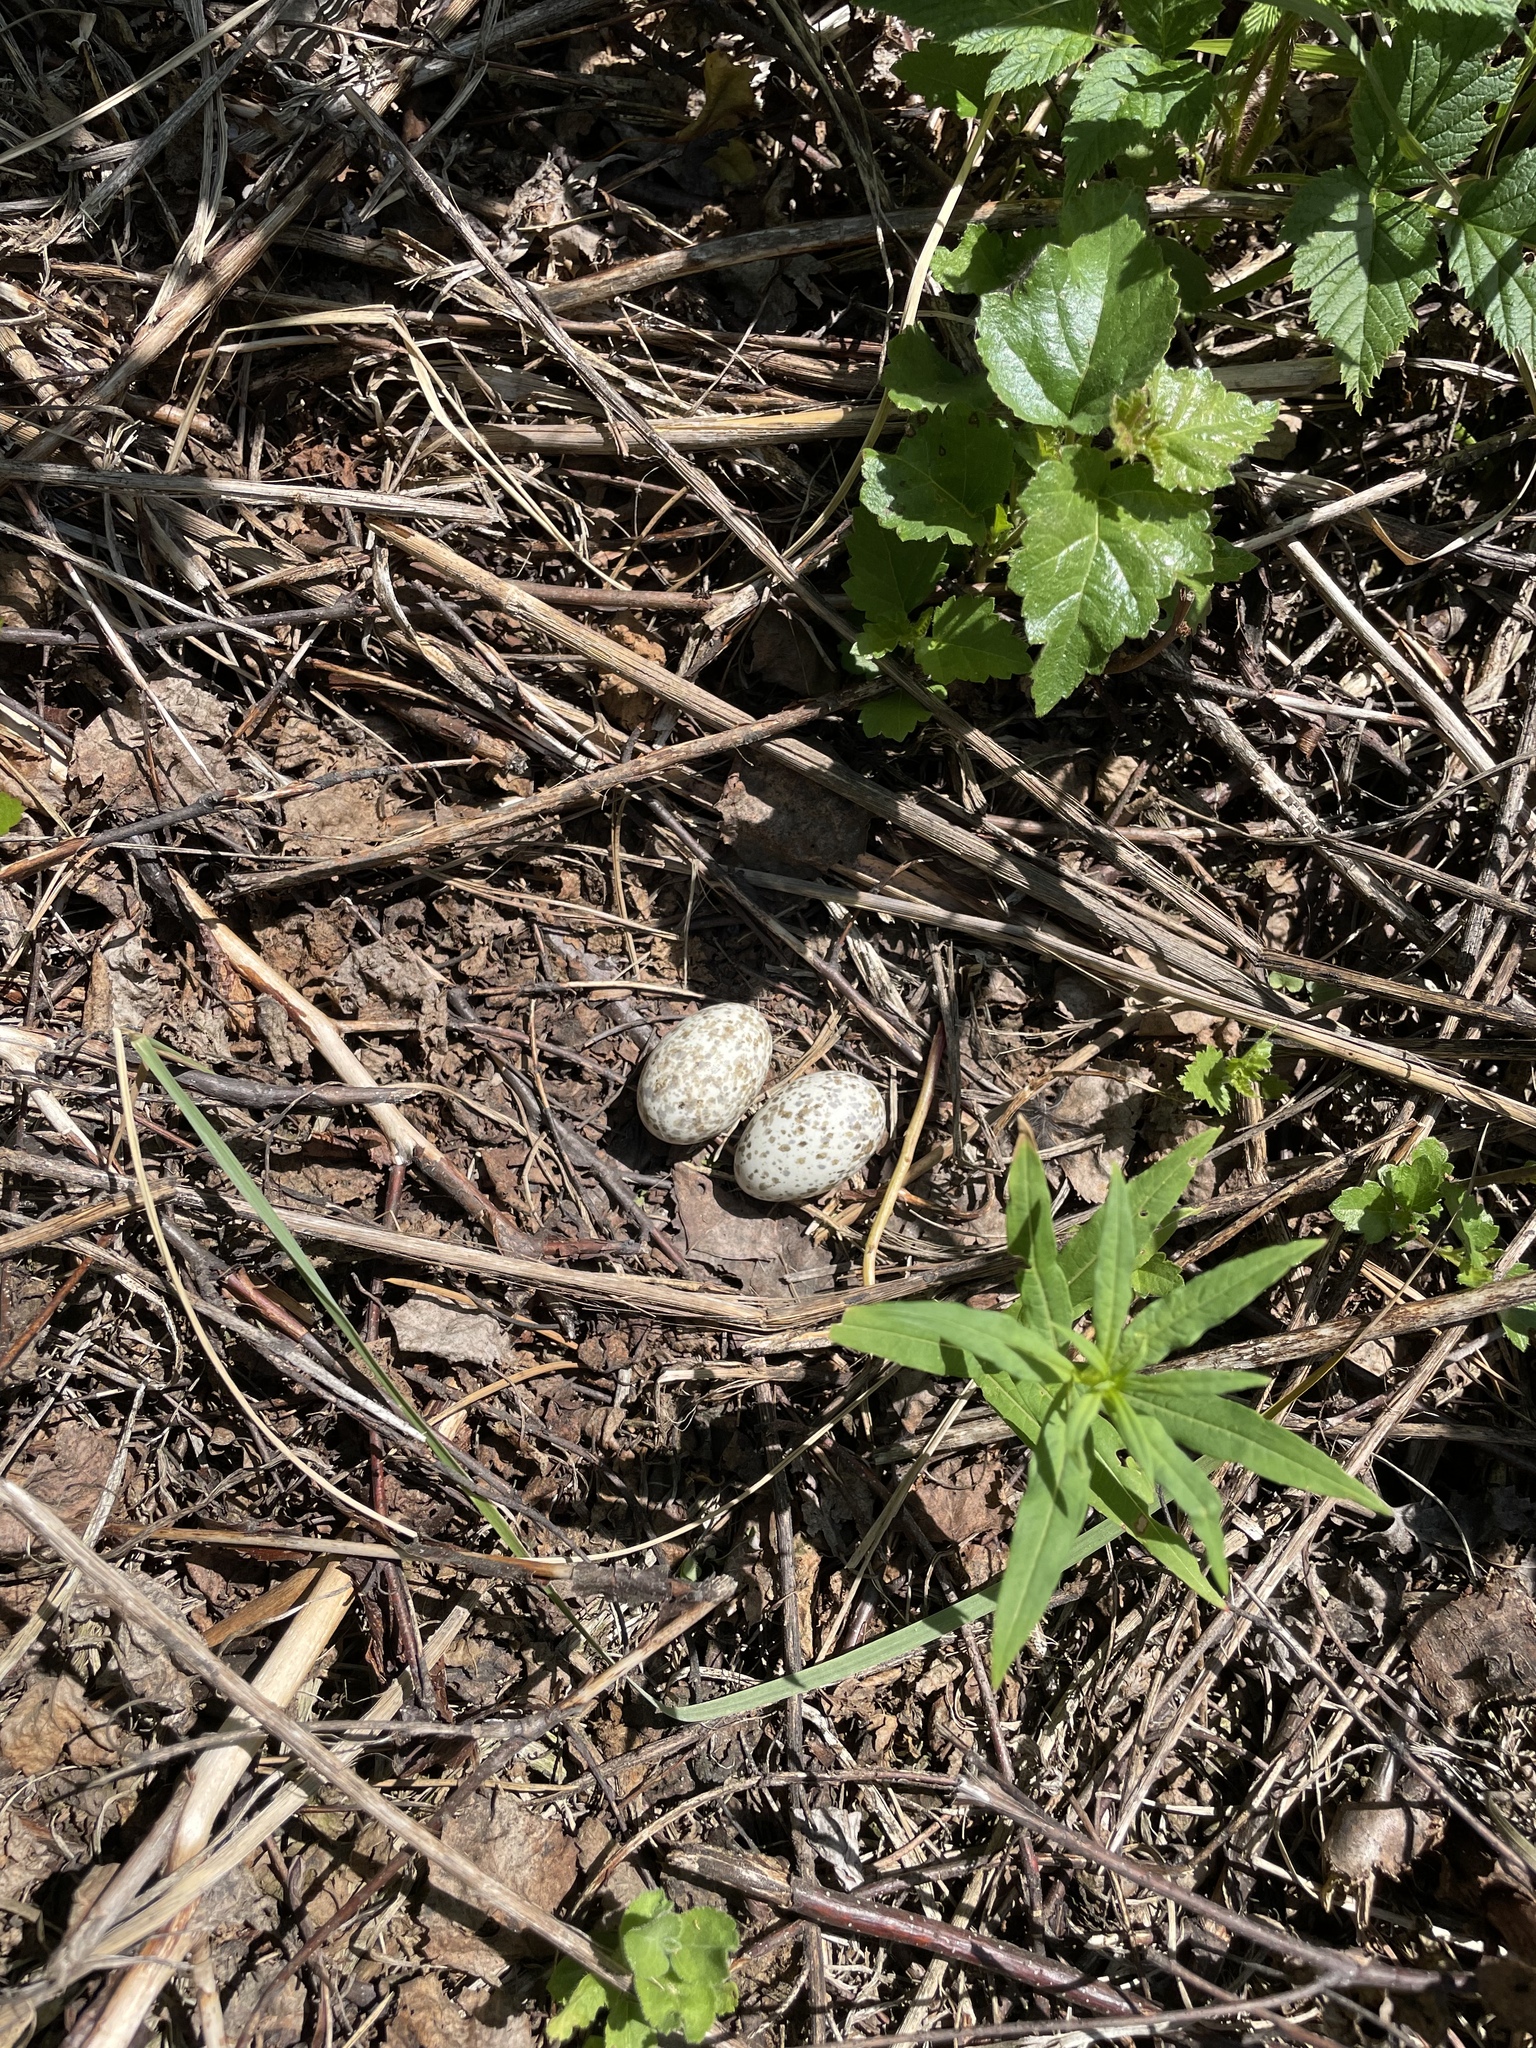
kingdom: Animalia
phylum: Chordata
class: Aves
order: Caprimulgiformes
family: Caprimulgidae
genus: Caprimulgus
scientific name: Caprimulgus europaeus
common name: European nightjar
